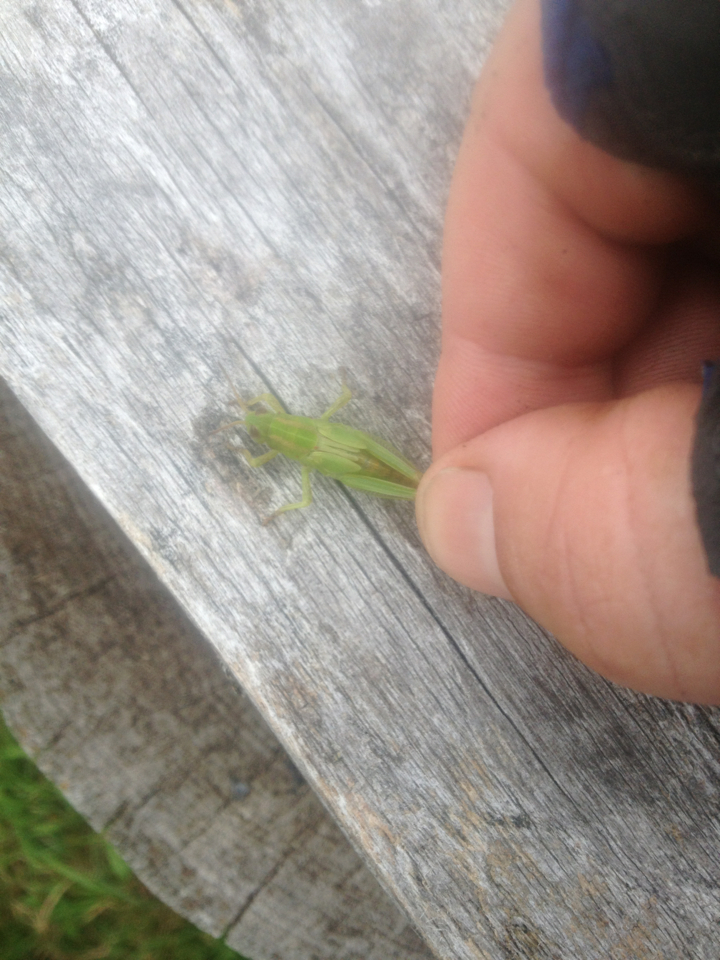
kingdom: Animalia
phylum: Arthropoda
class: Insecta
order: Orthoptera
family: Acrididae
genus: Melanoplus
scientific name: Melanoplus bivittatus
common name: Two-striped grasshopper
